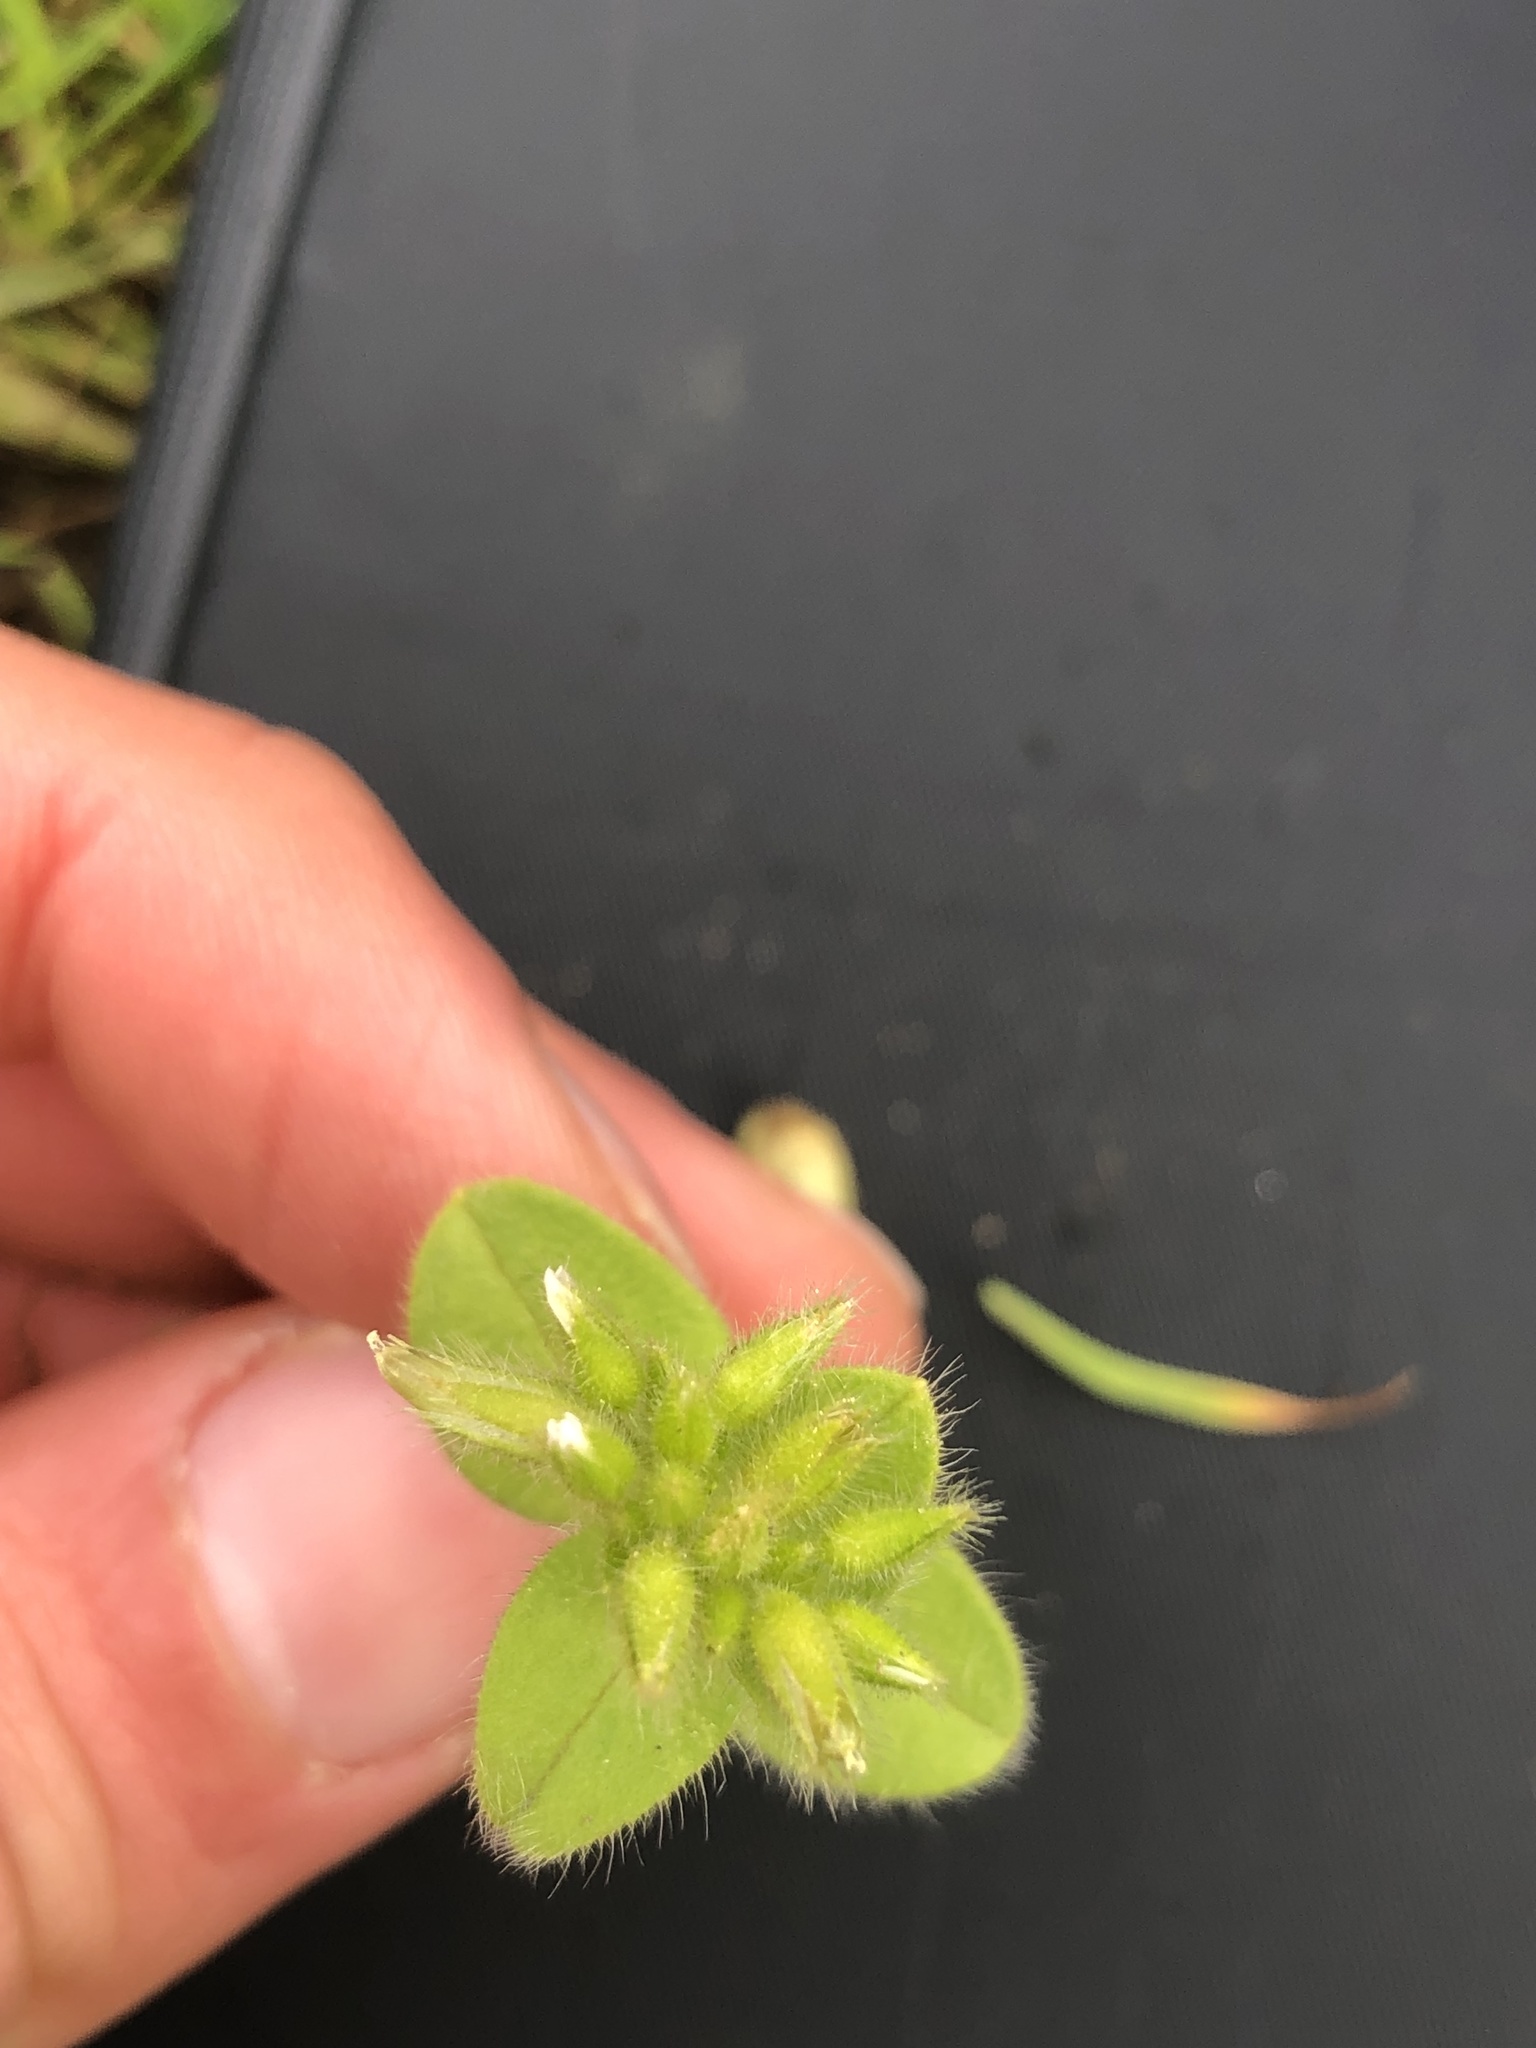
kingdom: Plantae
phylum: Tracheophyta
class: Magnoliopsida
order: Caryophyllales
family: Caryophyllaceae
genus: Cerastium
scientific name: Cerastium glomeratum
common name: Sticky chickweed
